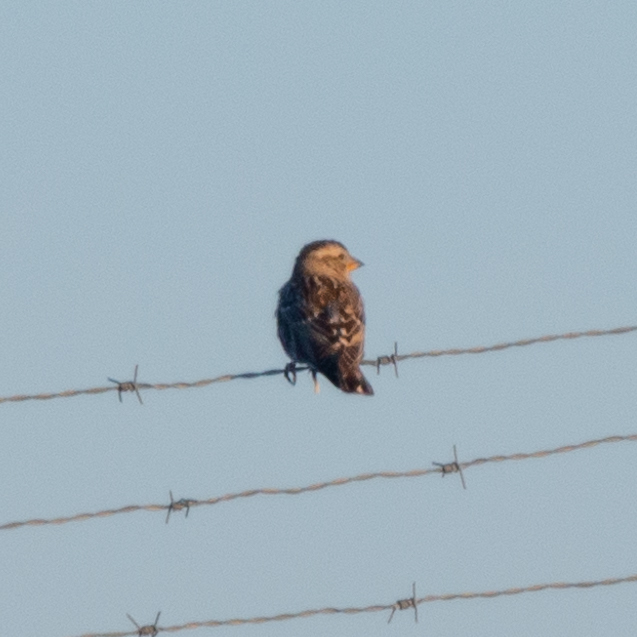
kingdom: Animalia
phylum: Chordata
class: Aves
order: Passeriformes
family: Passeridae
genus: Petronia
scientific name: Petronia petronia
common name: Rock sparrow
